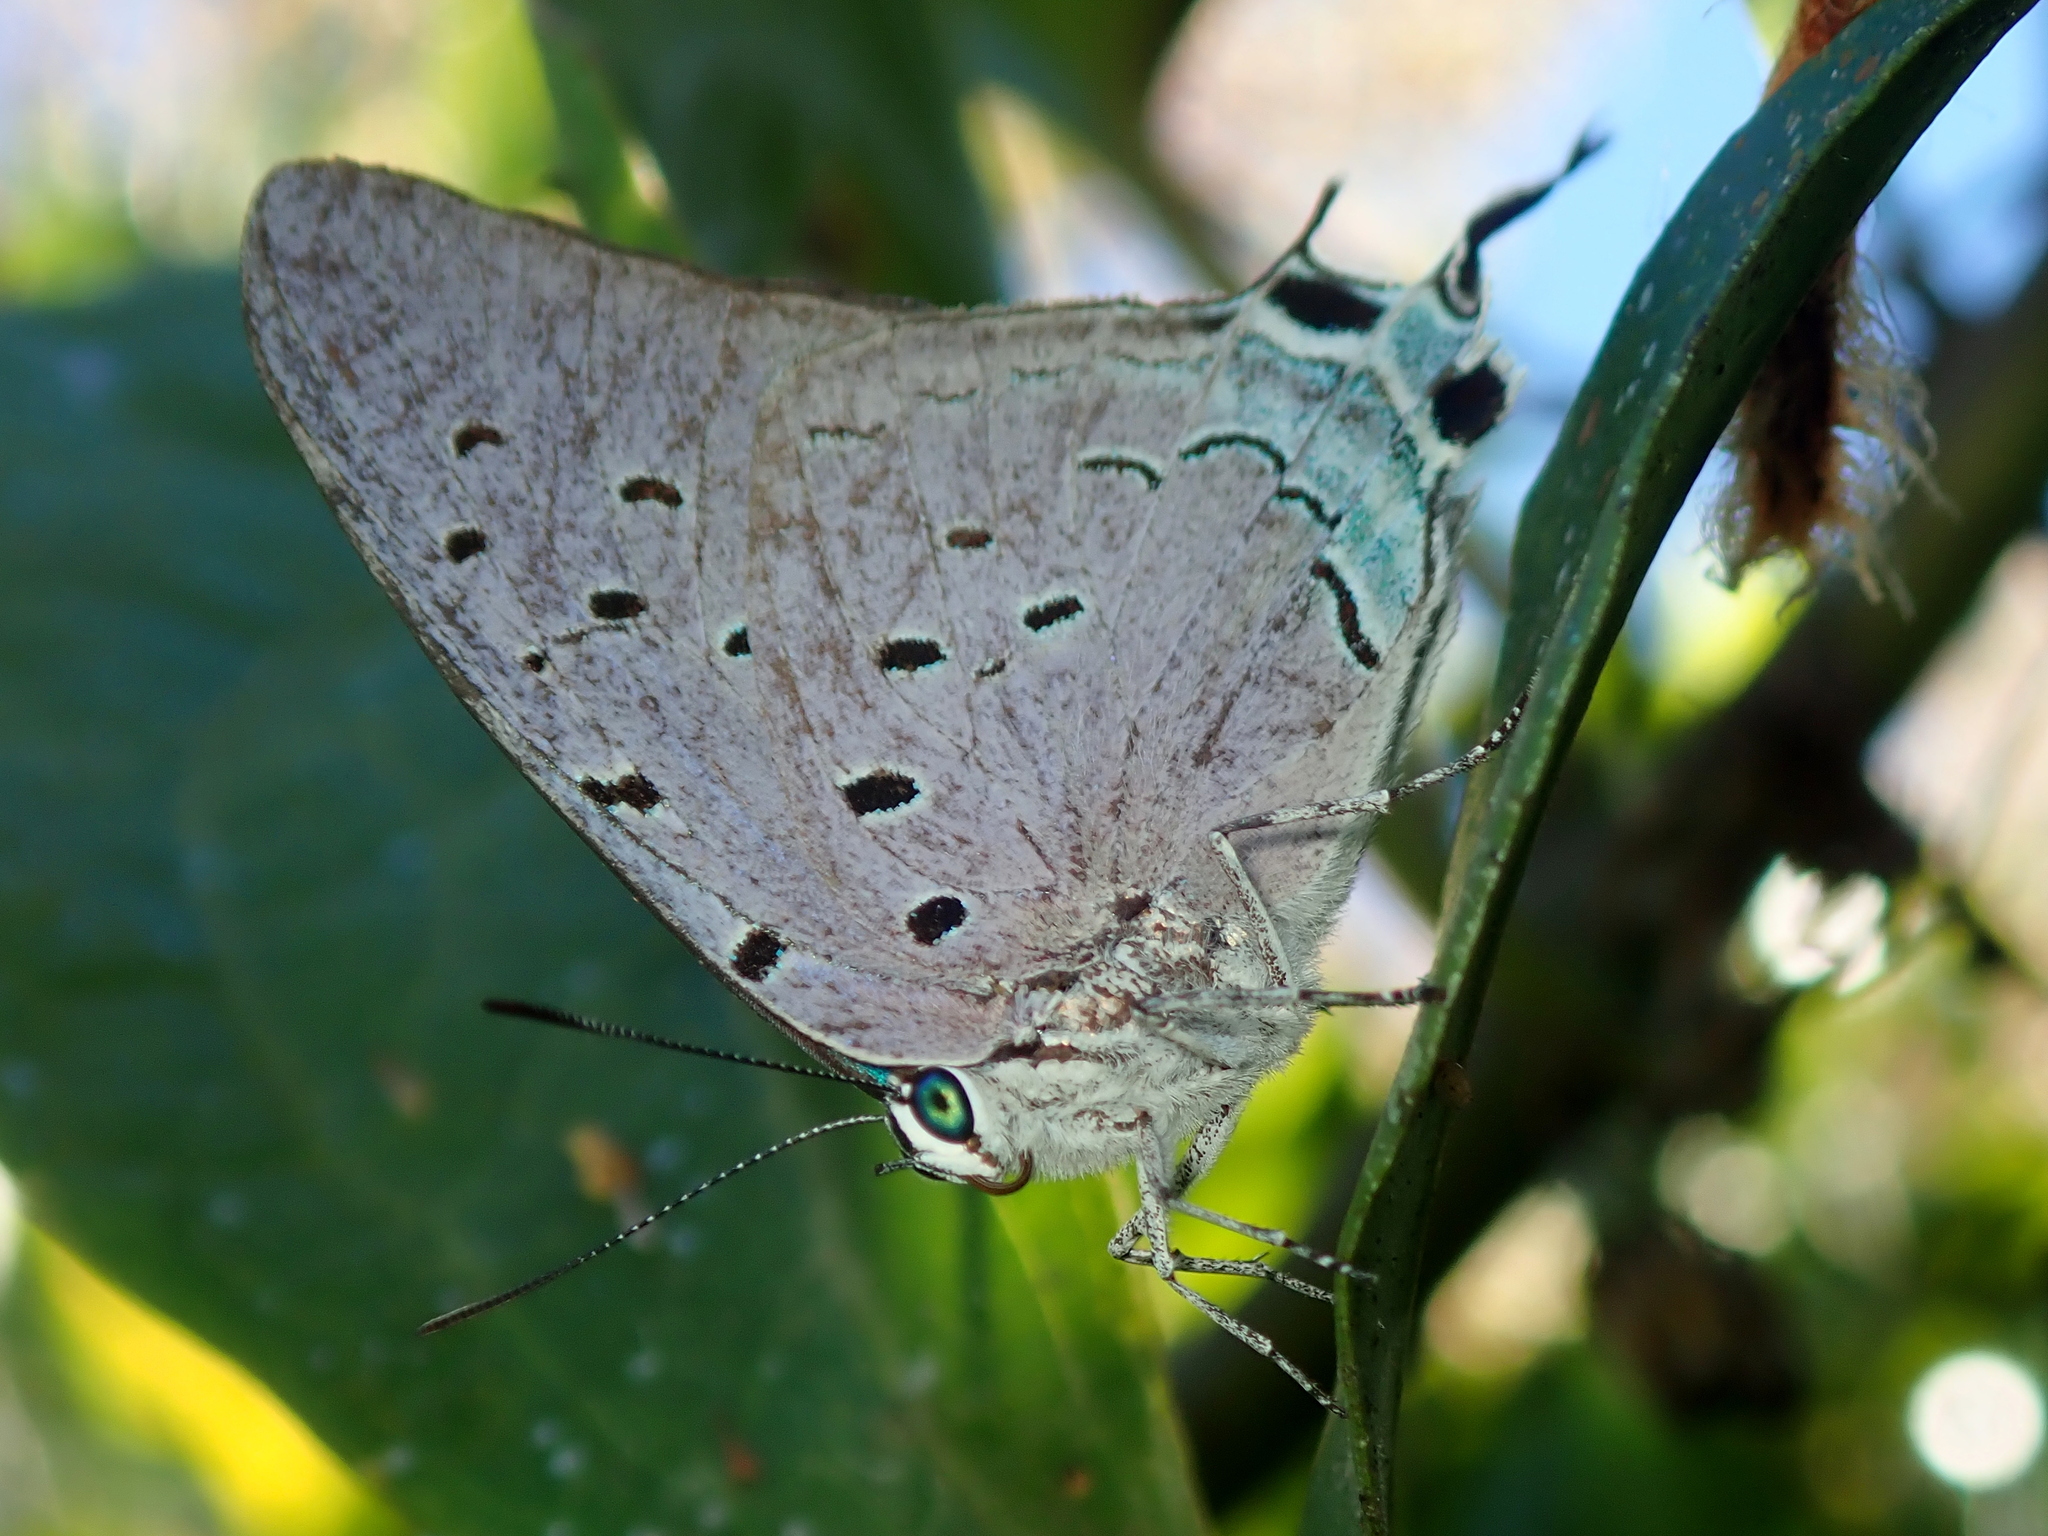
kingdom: Animalia
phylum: Arthropoda
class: Insecta
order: Lepidoptera
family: Lycaenidae
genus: Pseudolycaena
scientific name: Pseudolycaena marsyas
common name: Marsyas hairstreak
